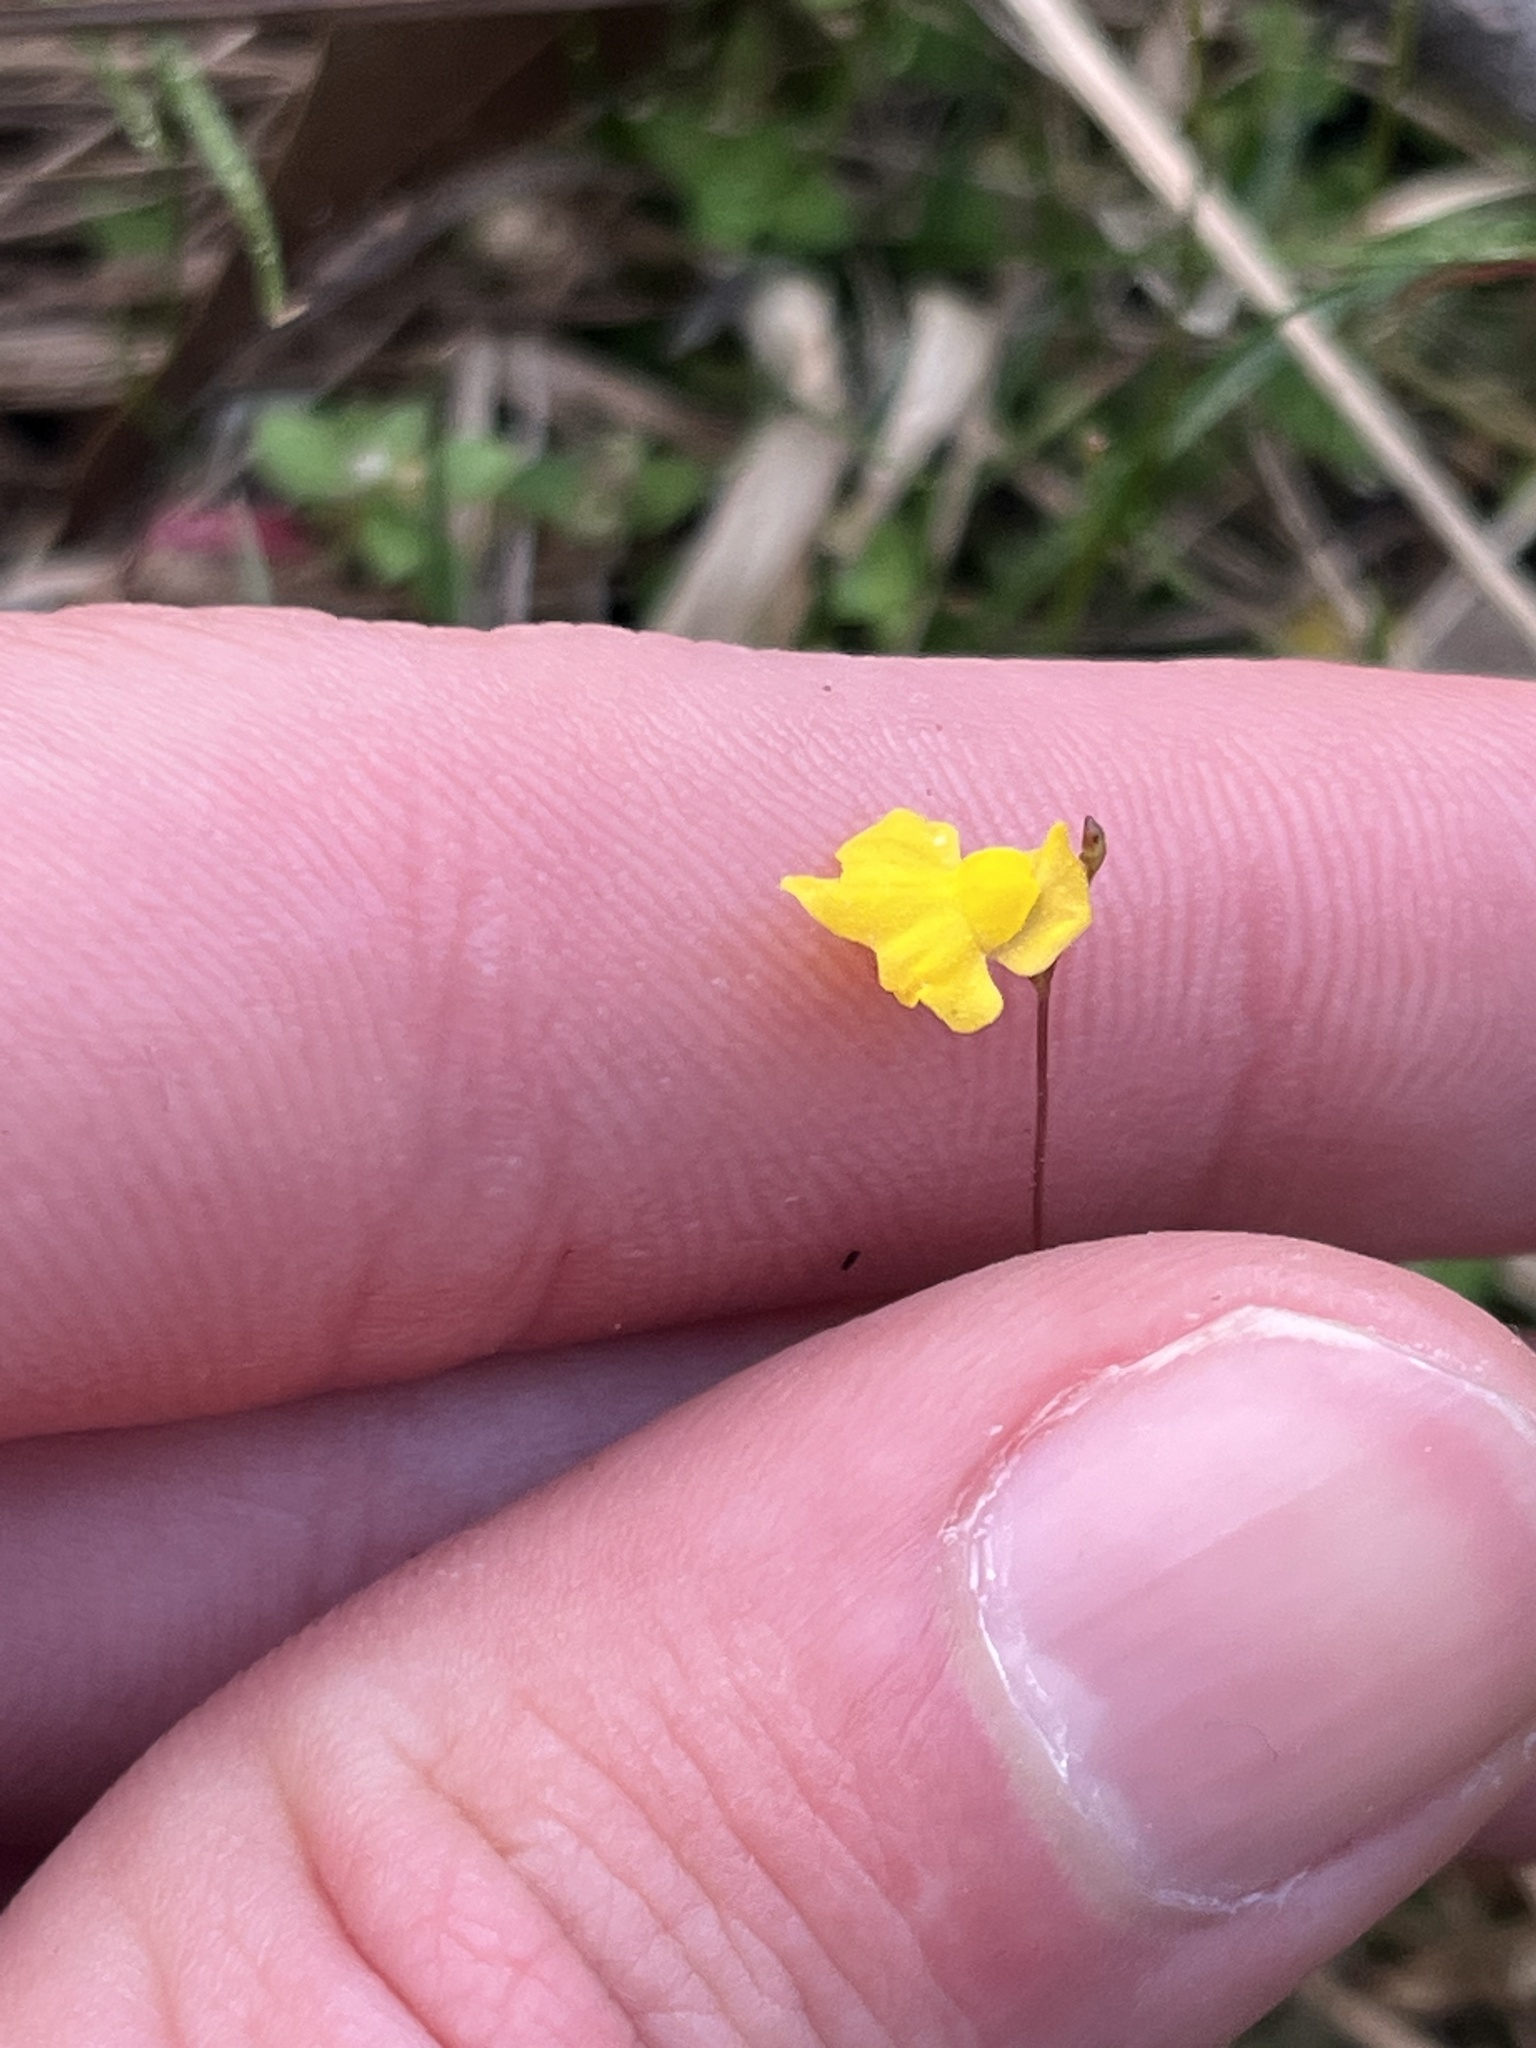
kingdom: Plantae
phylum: Tracheophyta
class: Magnoliopsida
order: Lamiales
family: Lentibulariaceae
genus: Utricularia
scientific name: Utricularia subulata
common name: Tiny bladderwort
